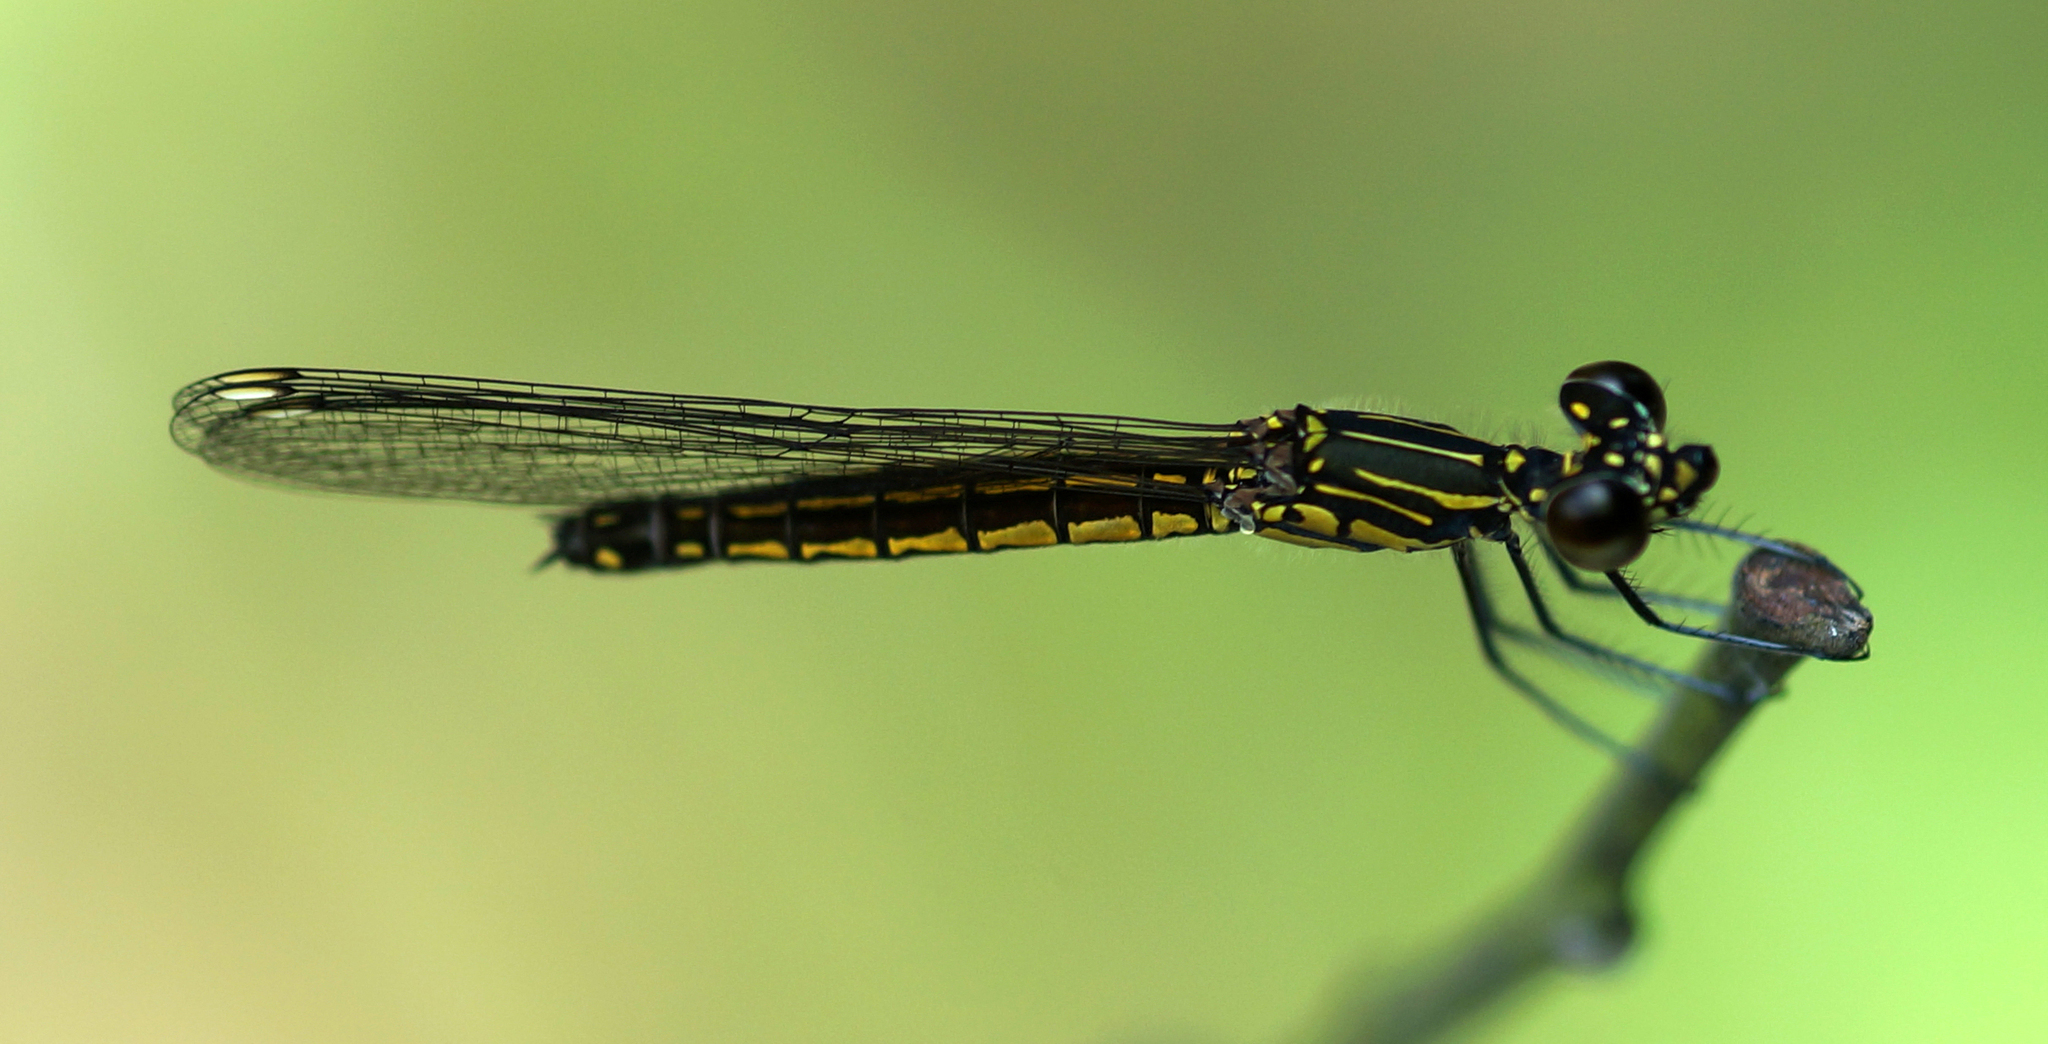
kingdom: Animalia
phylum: Arthropoda
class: Insecta
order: Odonata
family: Chlorocyphidae
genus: Libellago
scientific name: Libellago lineata
